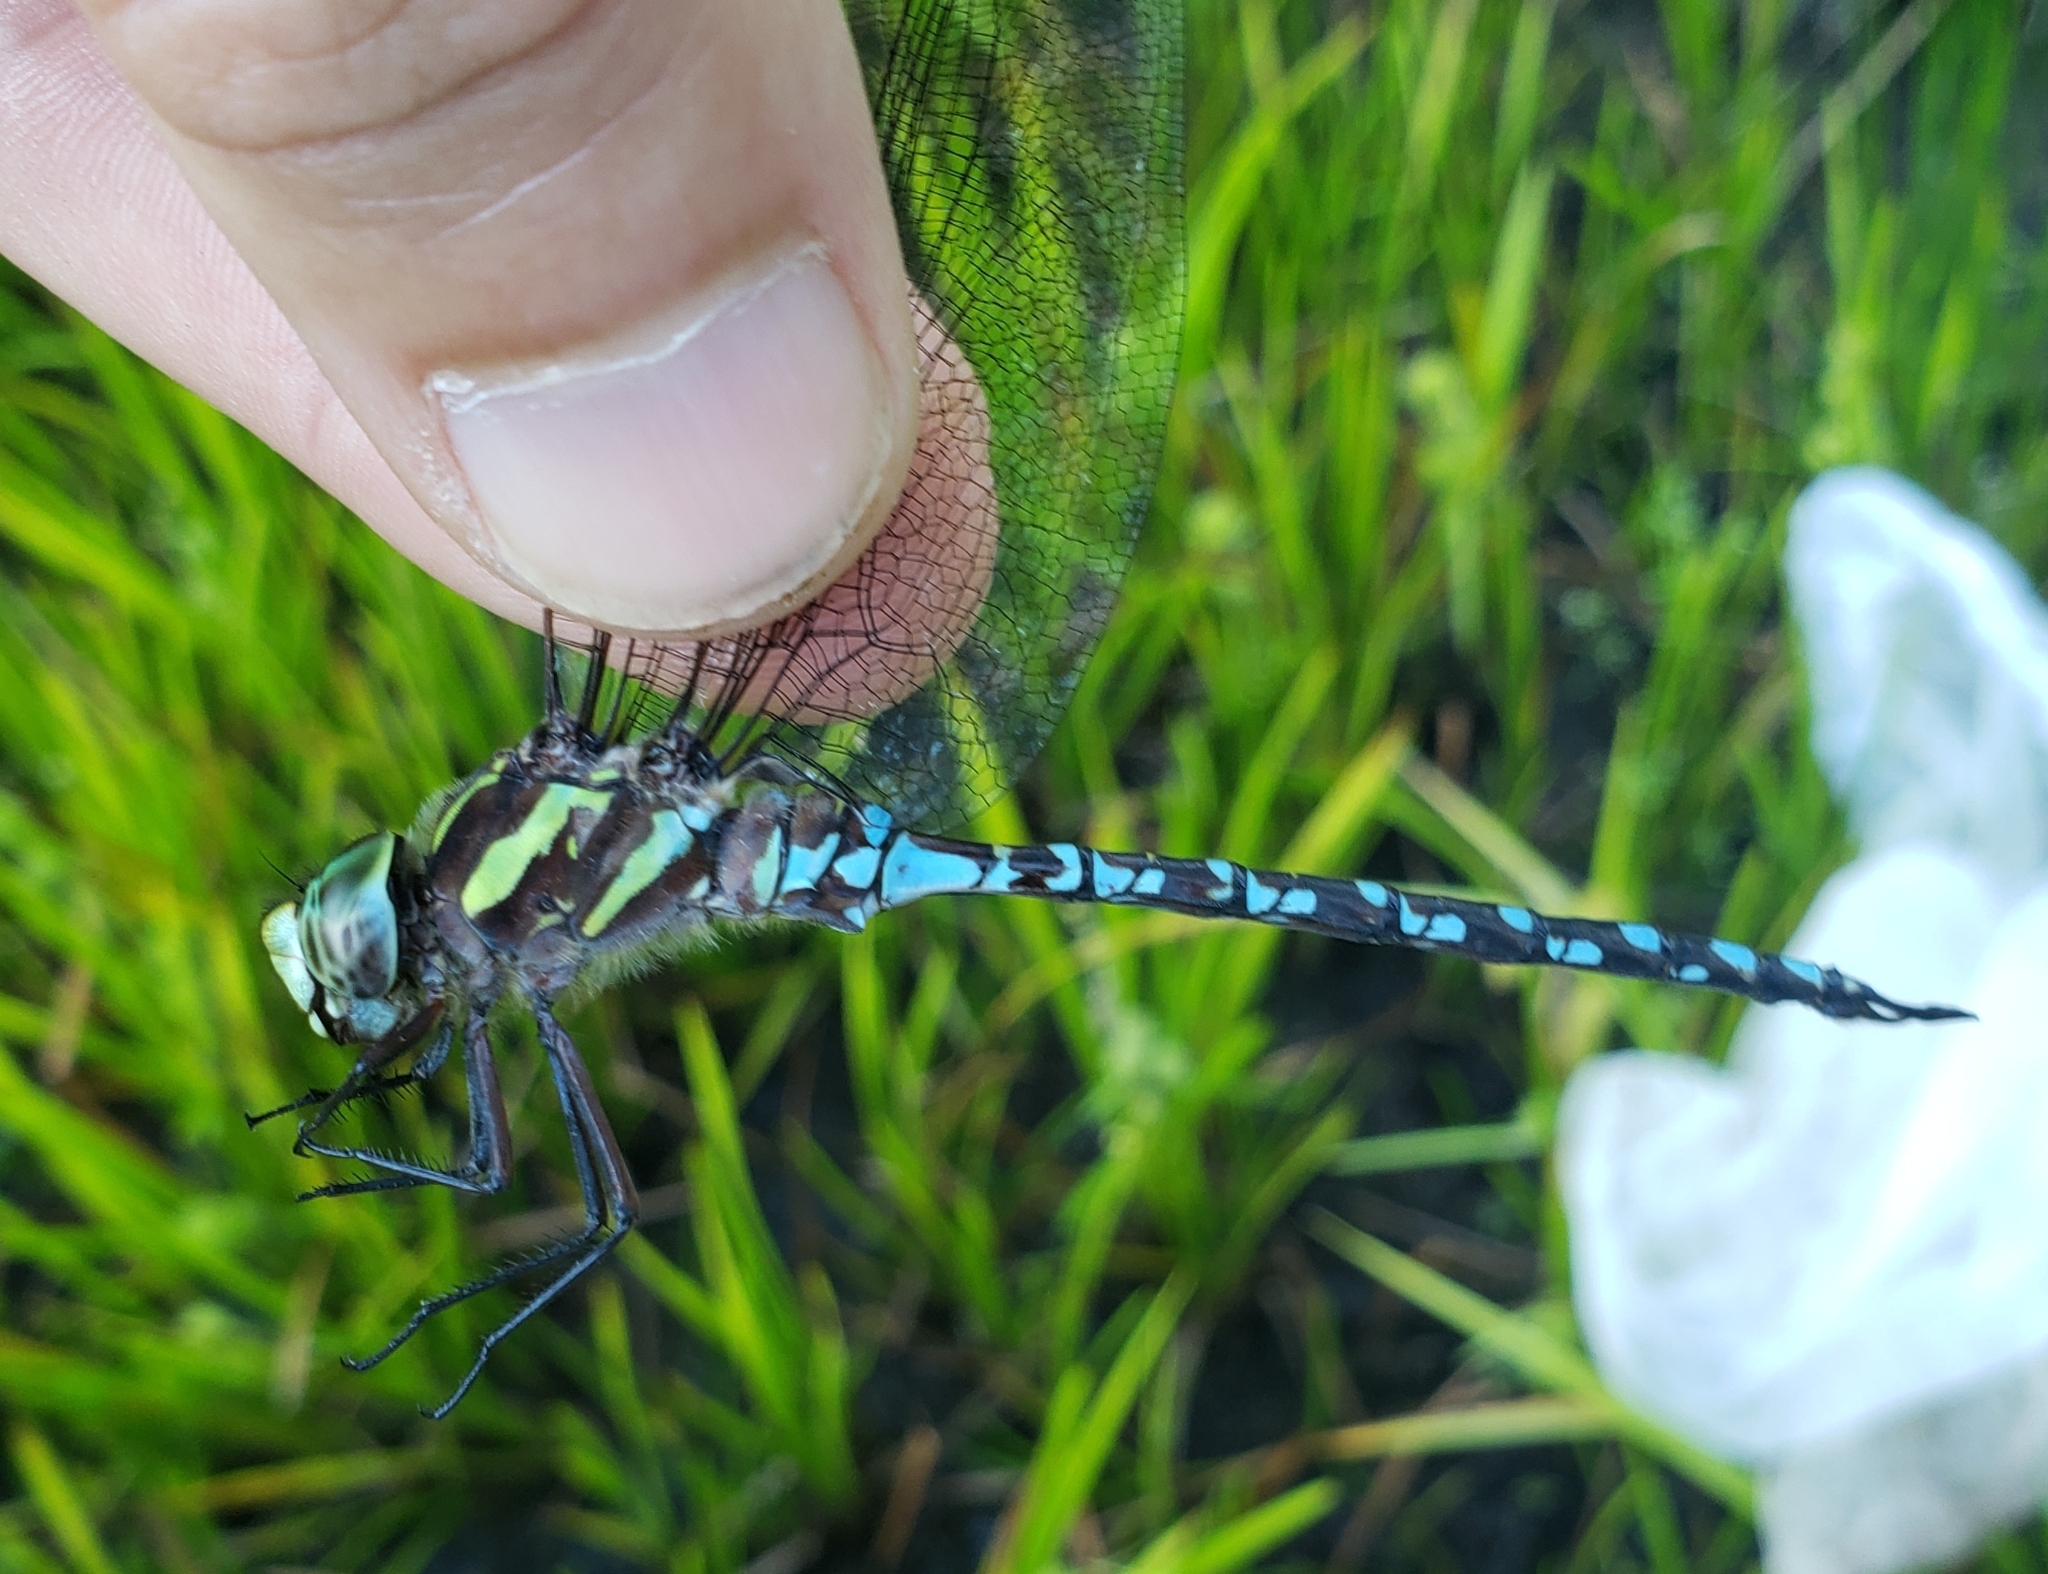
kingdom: Animalia
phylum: Arthropoda
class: Insecta
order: Odonata
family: Aeshnidae
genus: Aeshna
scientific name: Aeshna verticalis
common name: Green-striped darner
